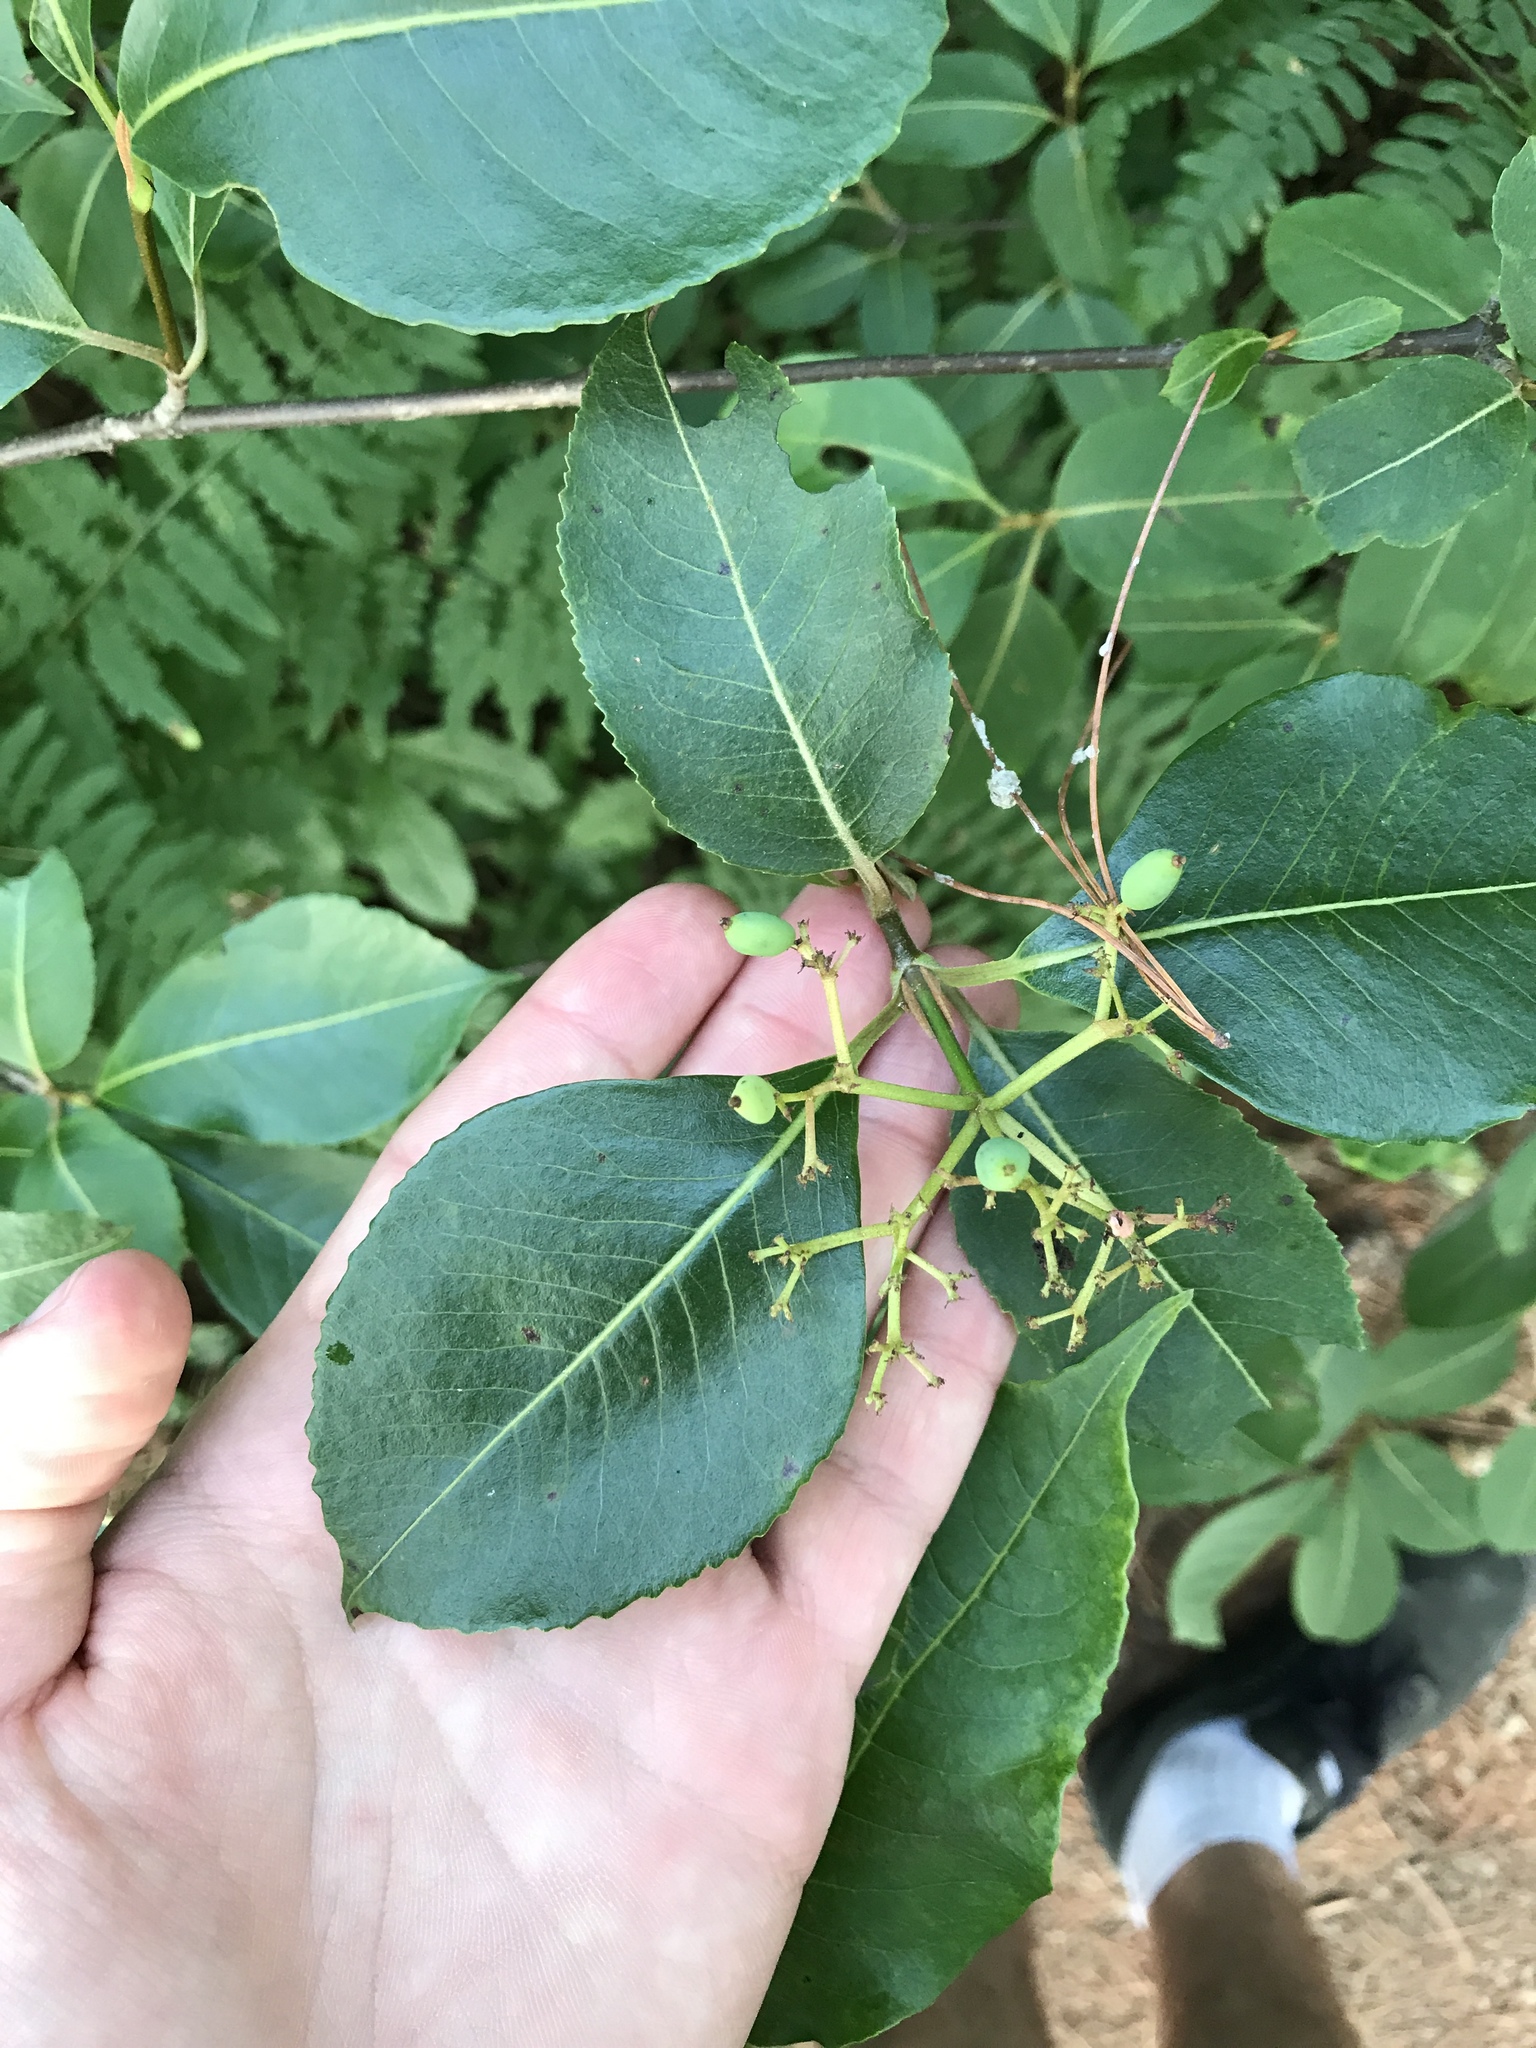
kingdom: Plantae
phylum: Tracheophyta
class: Magnoliopsida
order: Dipsacales
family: Viburnaceae
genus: Viburnum
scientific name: Viburnum cassinoides
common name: Swamp haw
